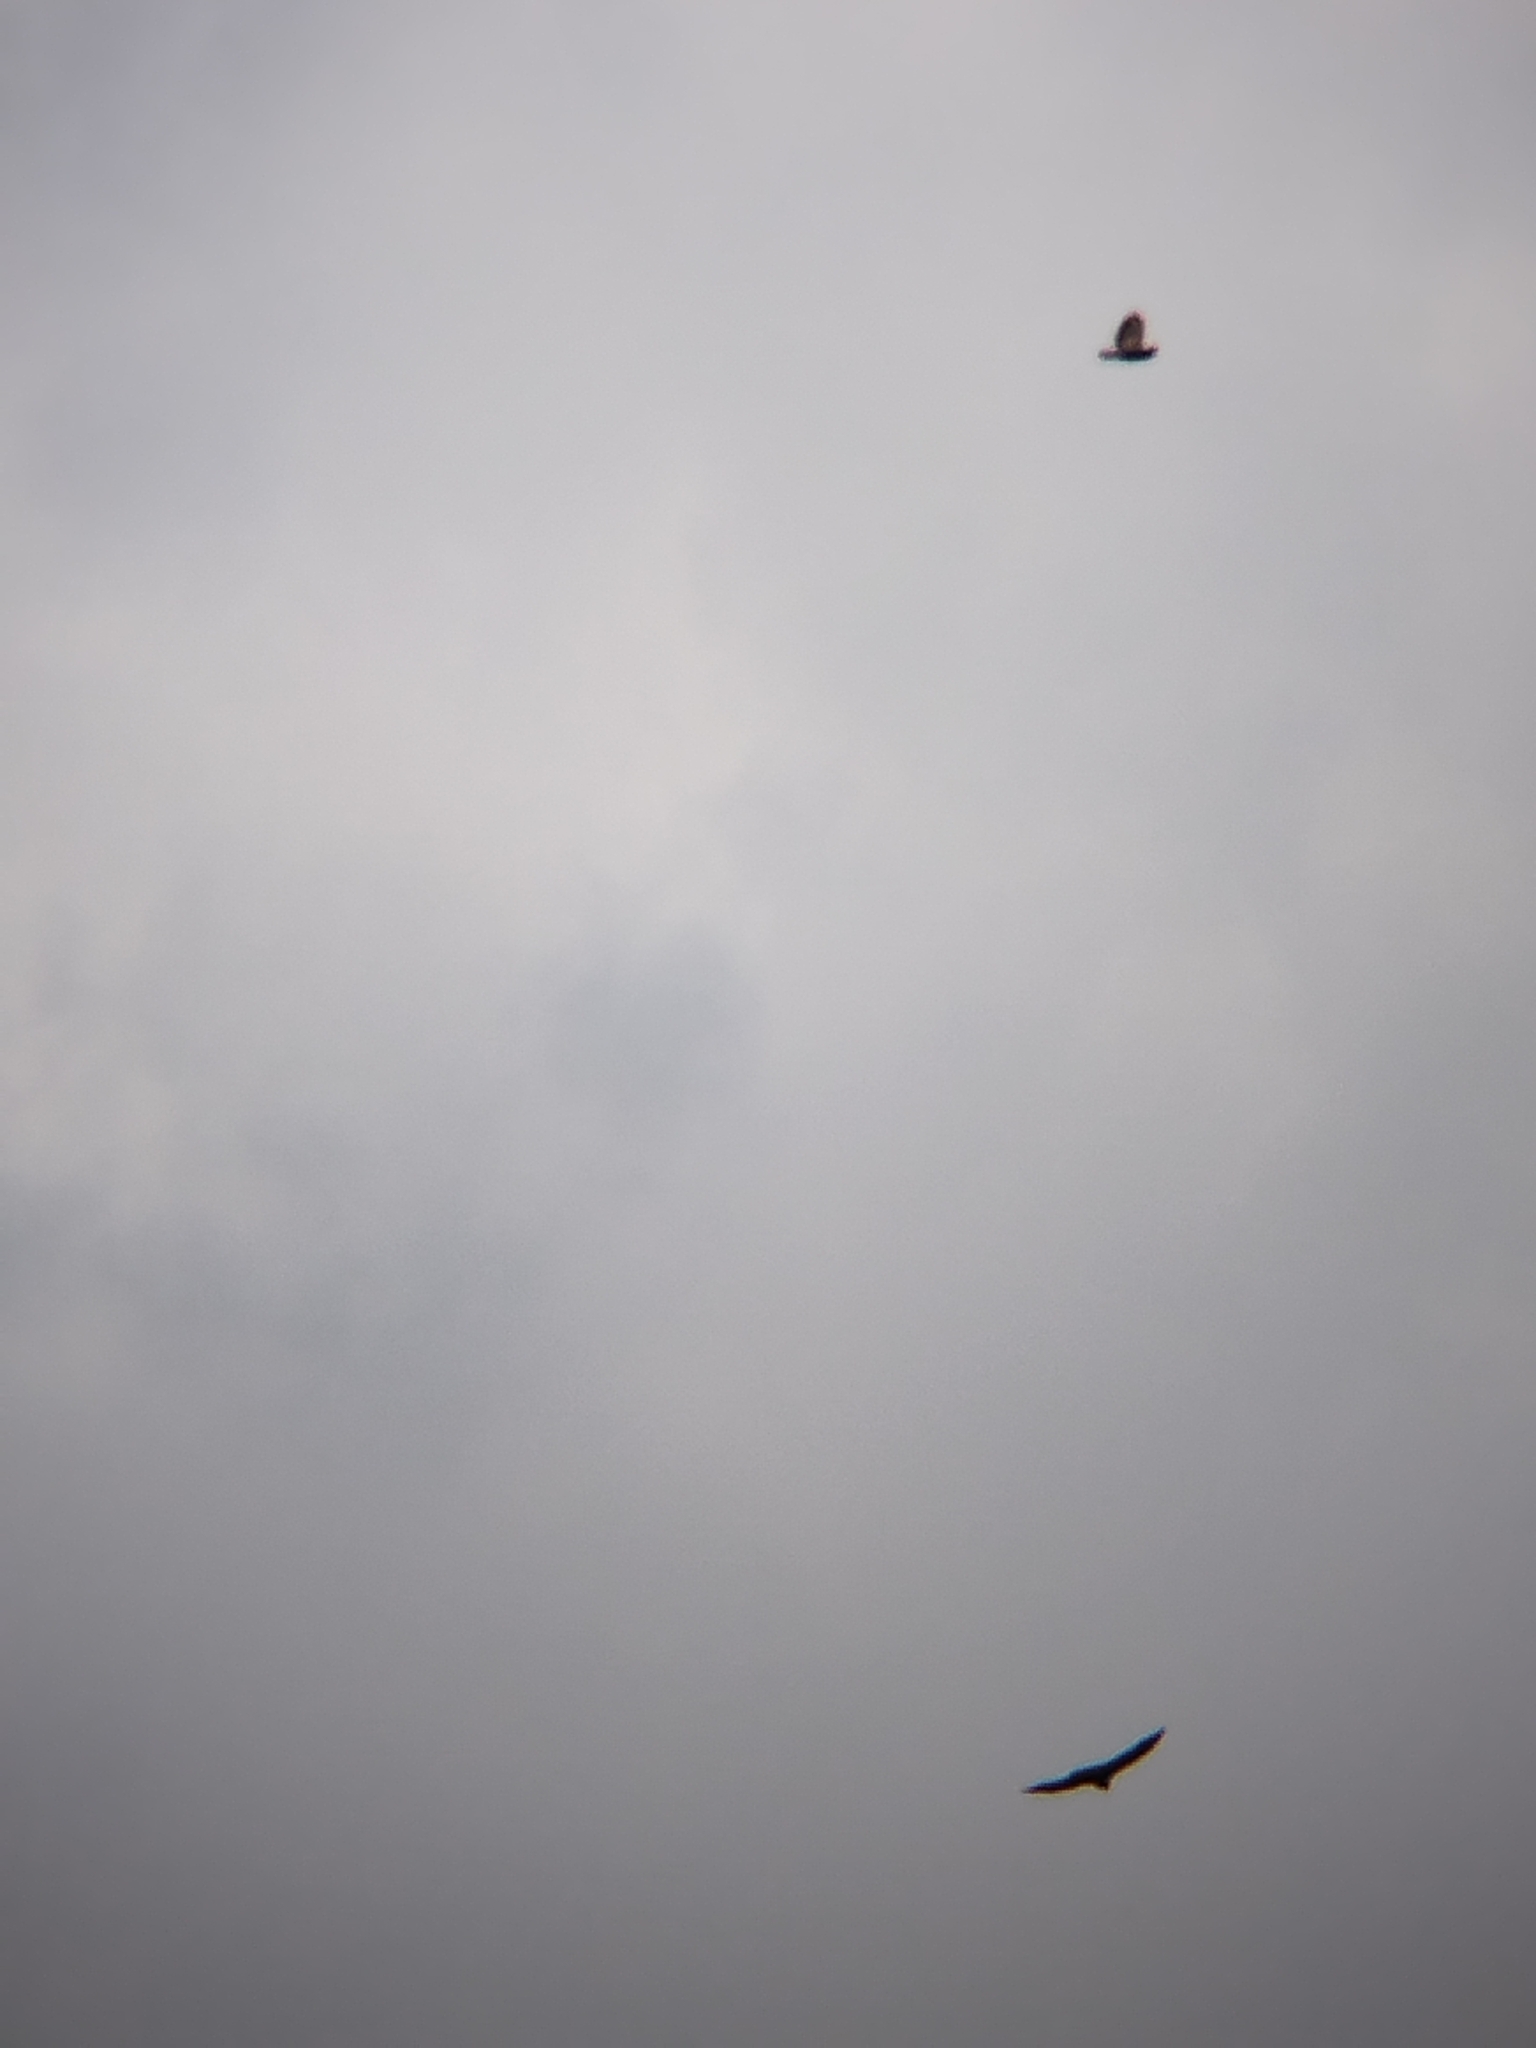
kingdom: Animalia
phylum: Chordata
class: Aves
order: Accipitriformes
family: Accipitridae
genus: Buteo
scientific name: Buteo buteo
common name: Common buzzard
